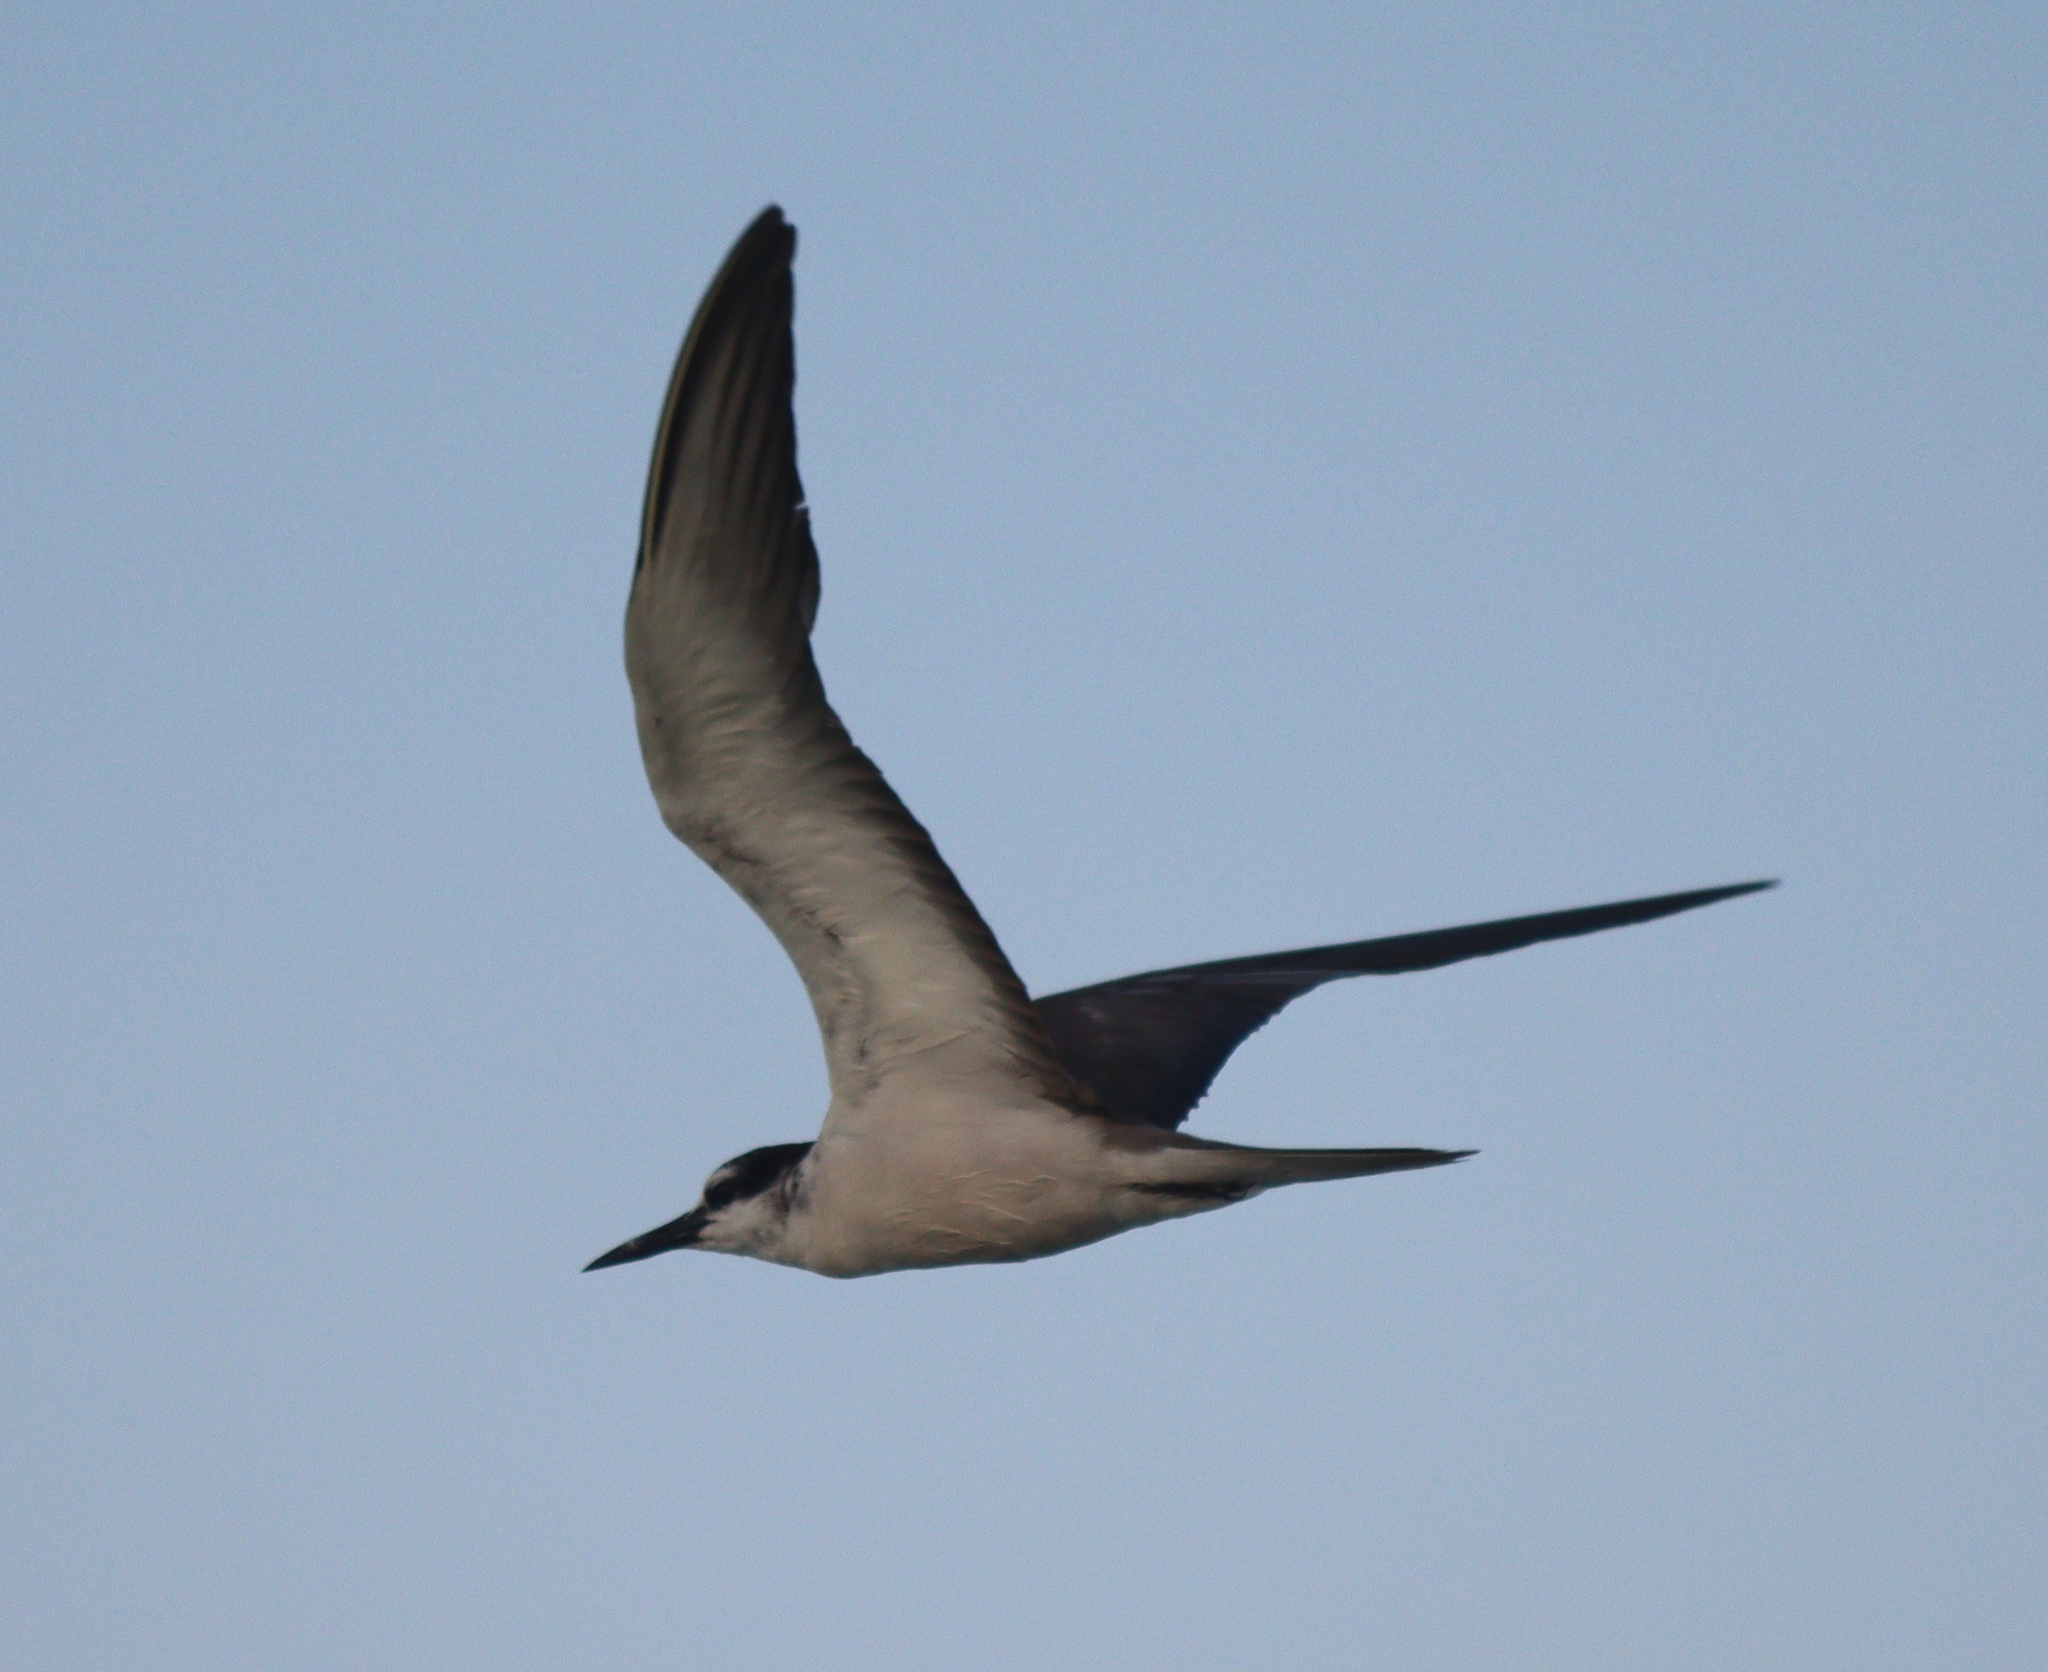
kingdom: Animalia
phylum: Chordata
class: Aves
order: Charadriiformes
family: Laridae
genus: Onychoprion
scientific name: Onychoprion anaethetus
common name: Bridled tern
